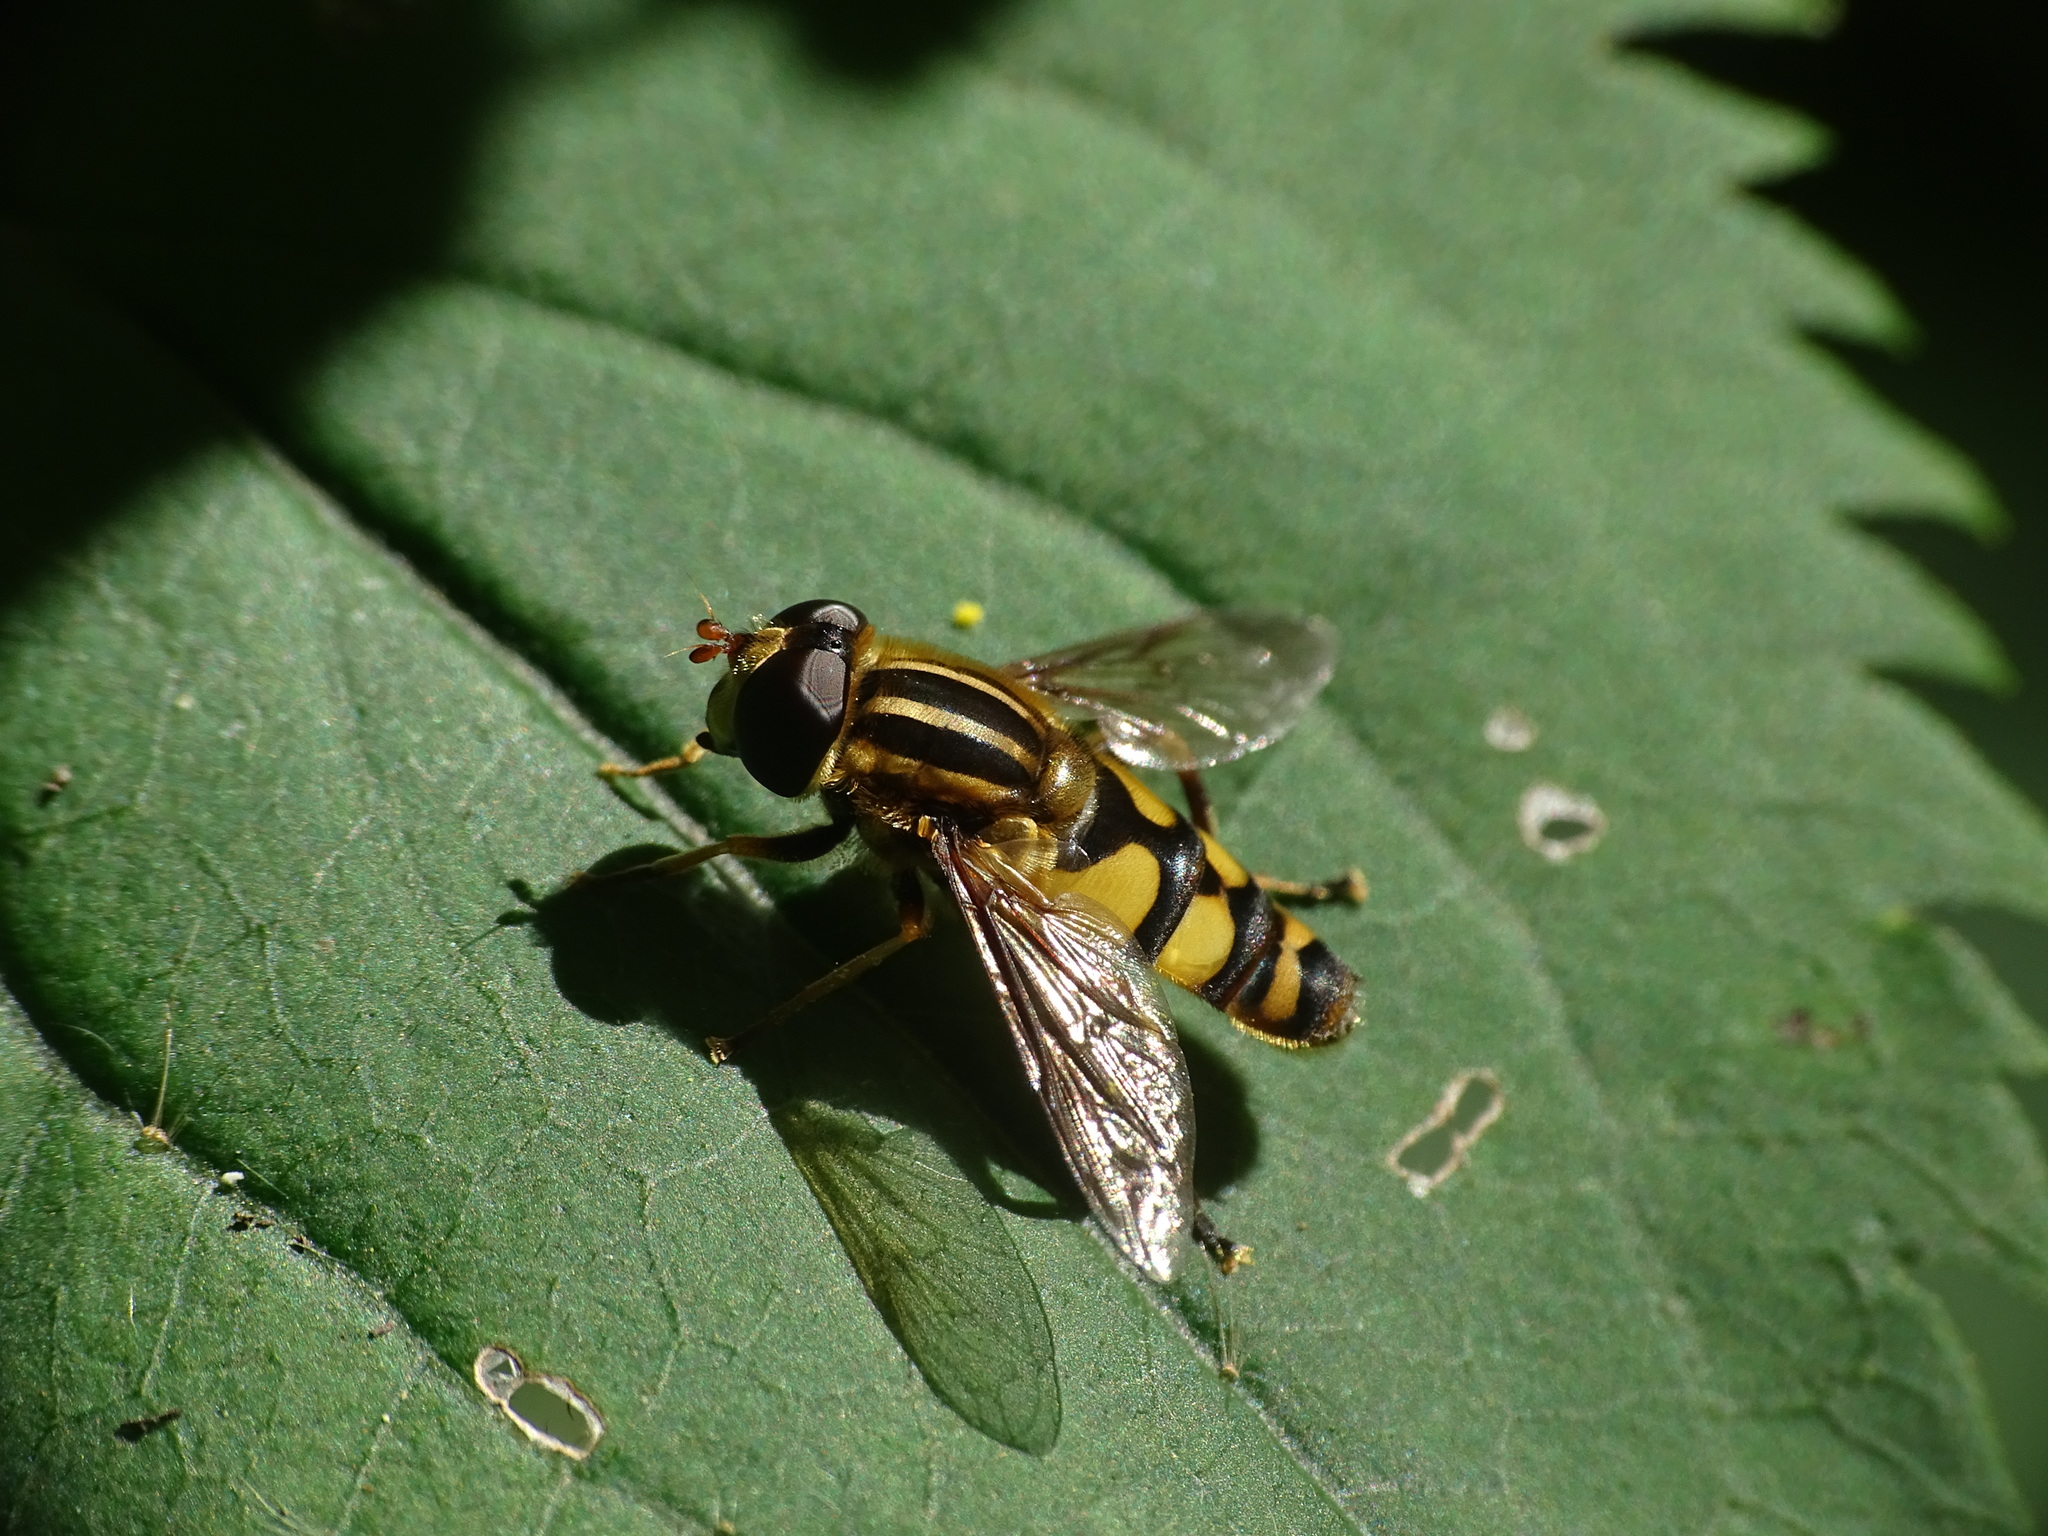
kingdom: Animalia
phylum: Arthropoda
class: Insecta
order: Diptera
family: Syrphidae
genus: Helophilus
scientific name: Helophilus fasciatus
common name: Narrow-headed marsh fly
